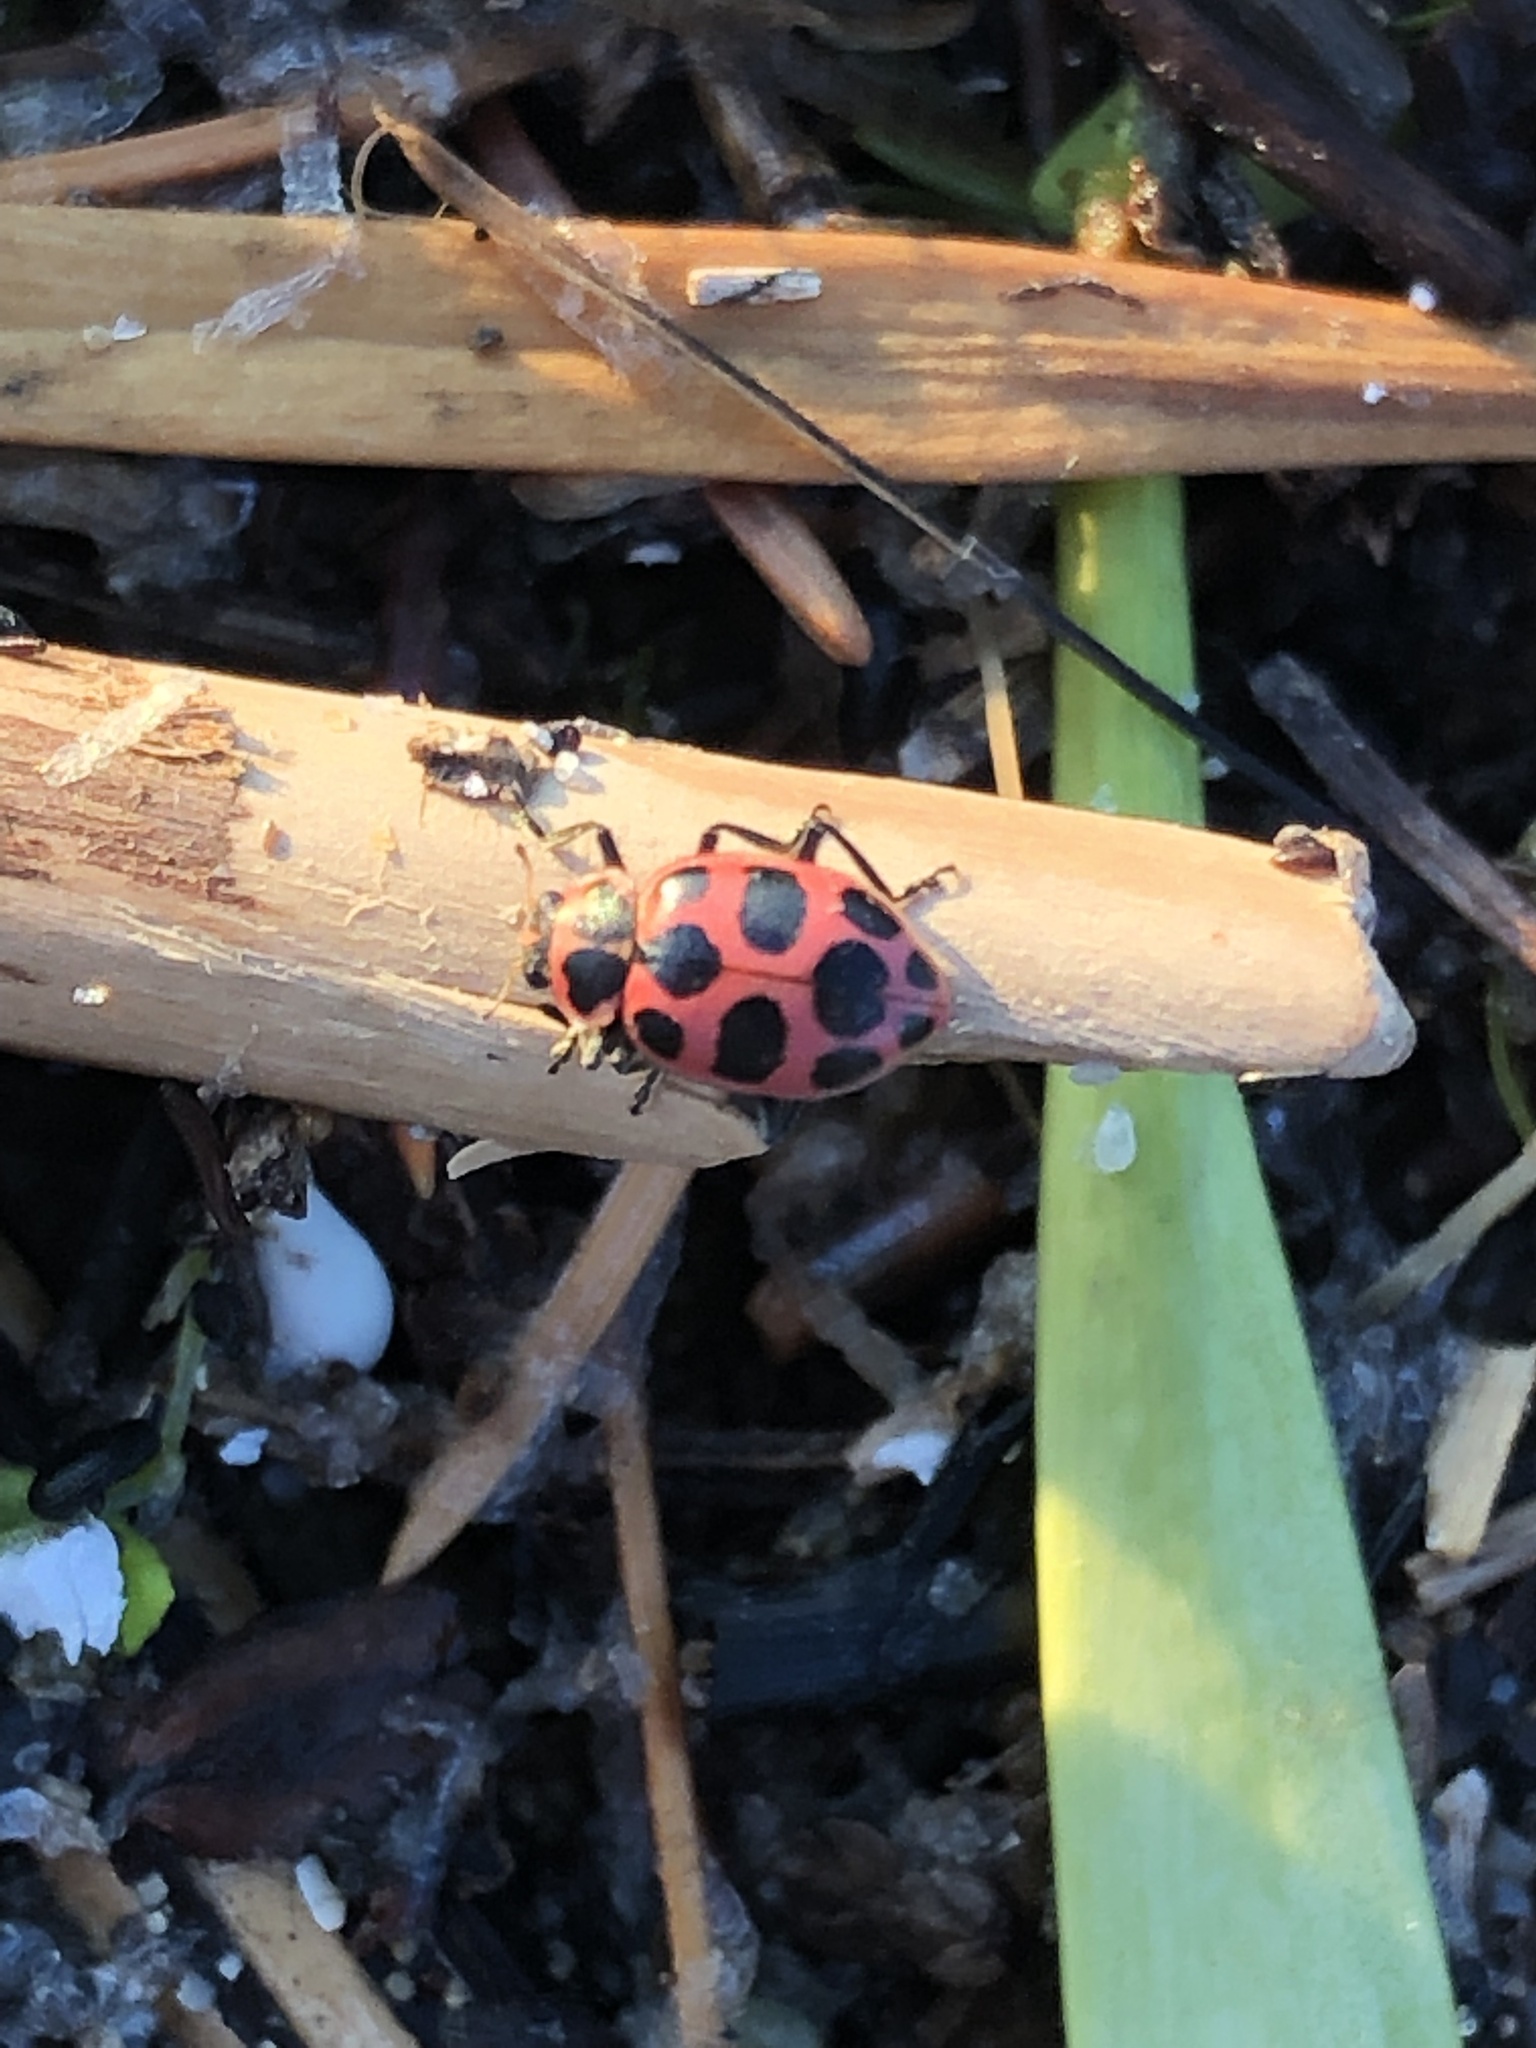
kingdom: Animalia
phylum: Arthropoda
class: Insecta
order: Coleoptera
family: Coccinellidae
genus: Coleomegilla
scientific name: Coleomegilla maculata
